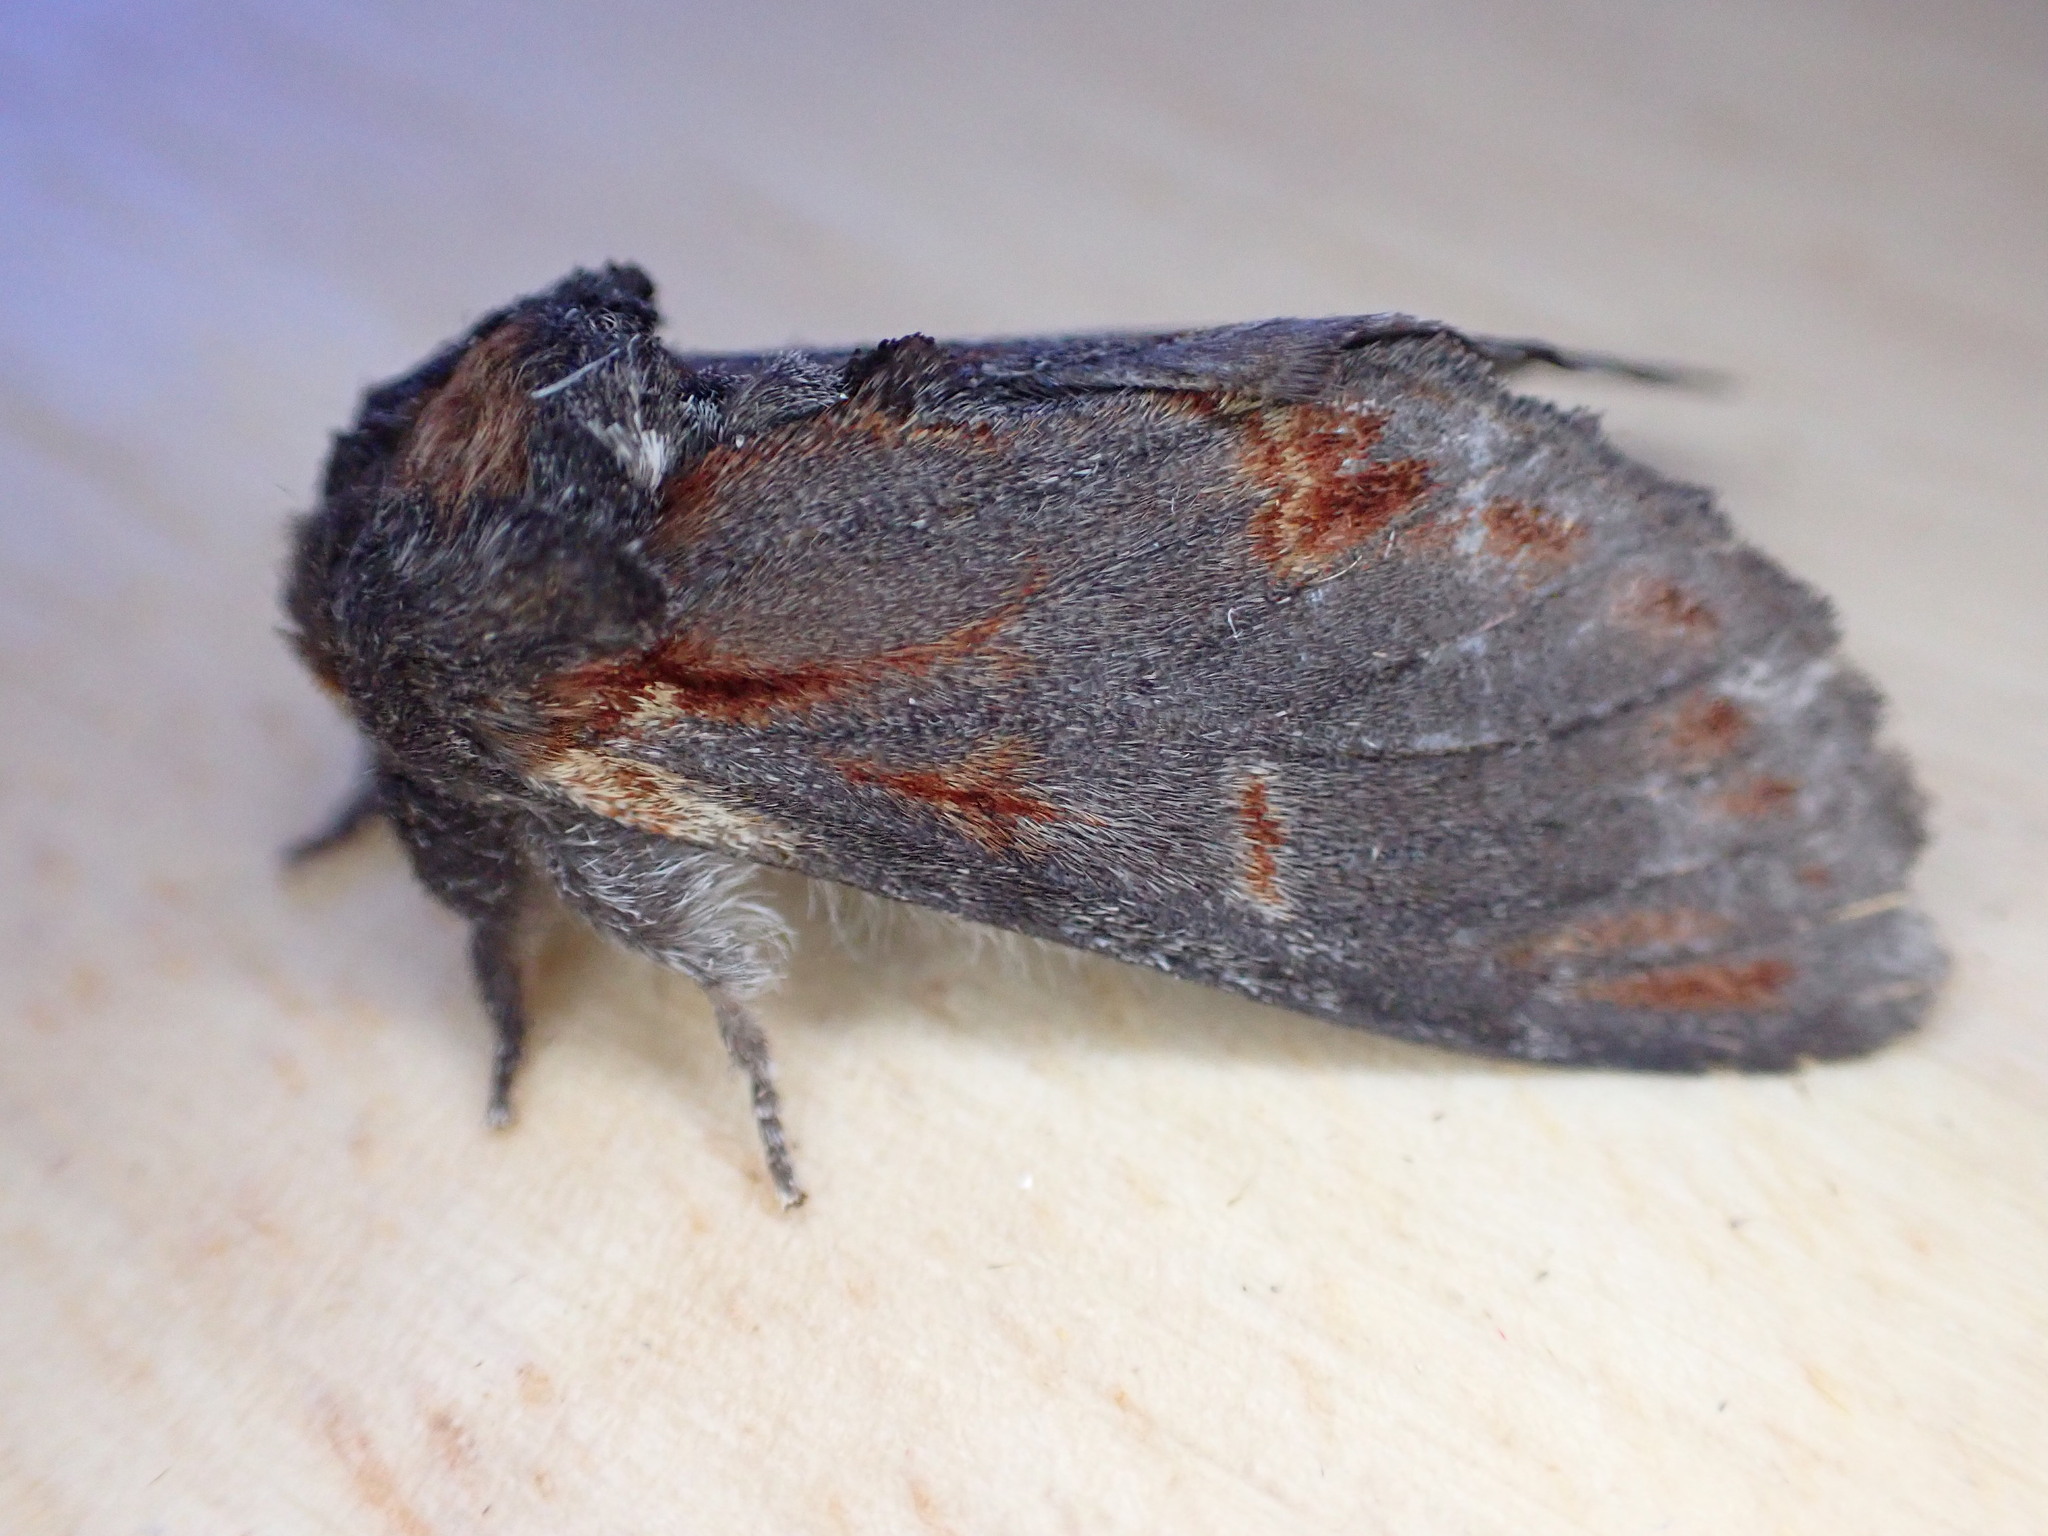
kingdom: Animalia
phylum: Arthropoda
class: Insecta
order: Lepidoptera
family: Notodontidae
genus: Notodonta
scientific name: Notodonta dromedarius
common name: Iron prominent
